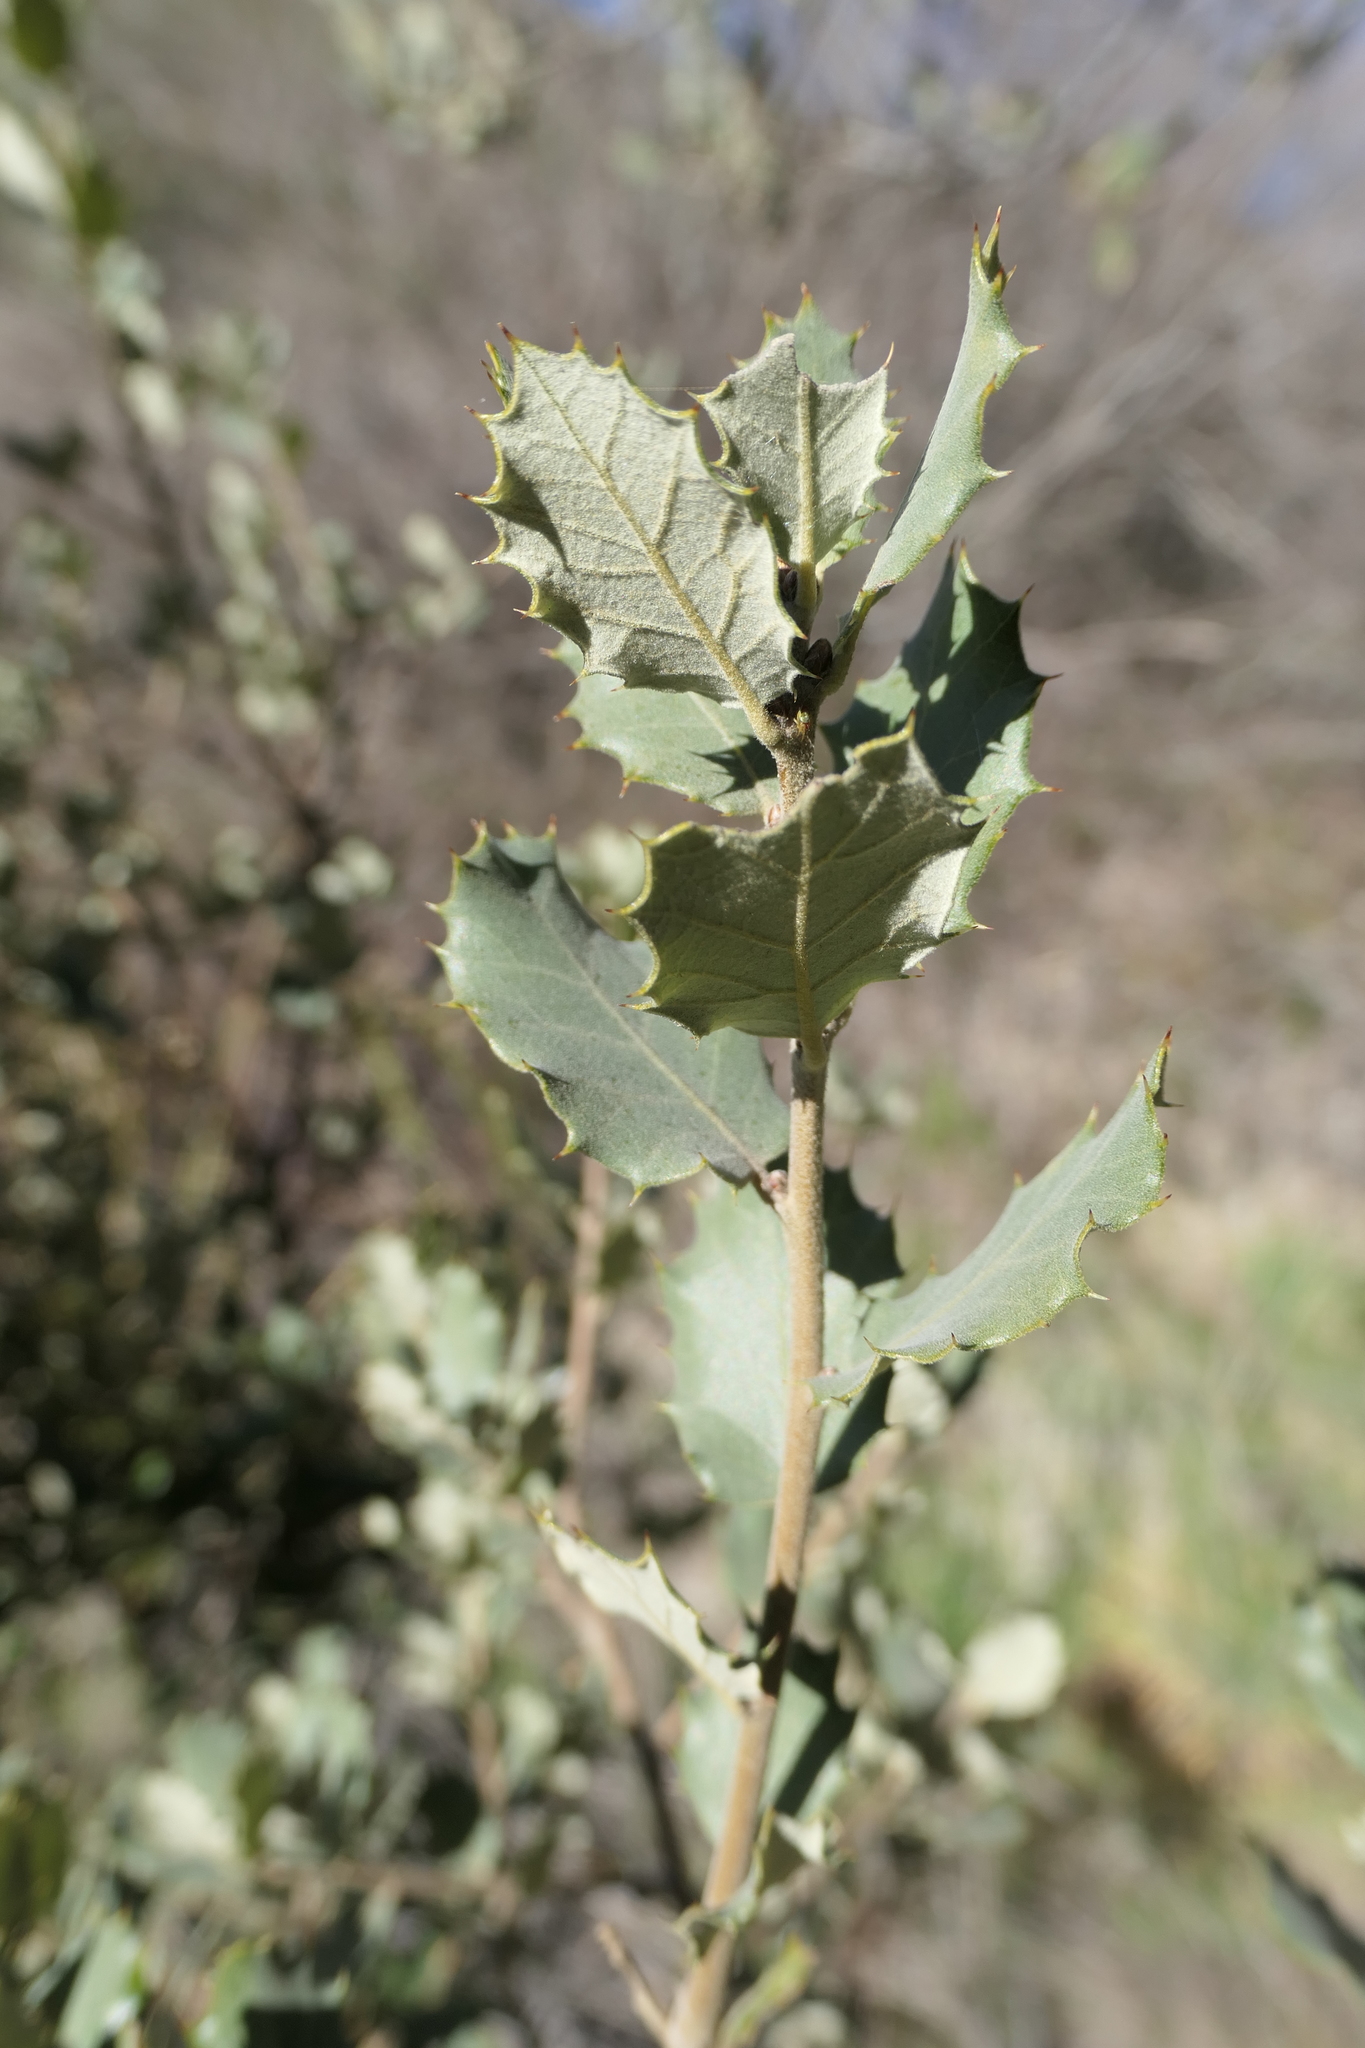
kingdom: Plantae
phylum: Tracheophyta
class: Magnoliopsida
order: Fagales
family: Fagaceae
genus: Quercus
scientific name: Quercus rotundifolia
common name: Holm oak
